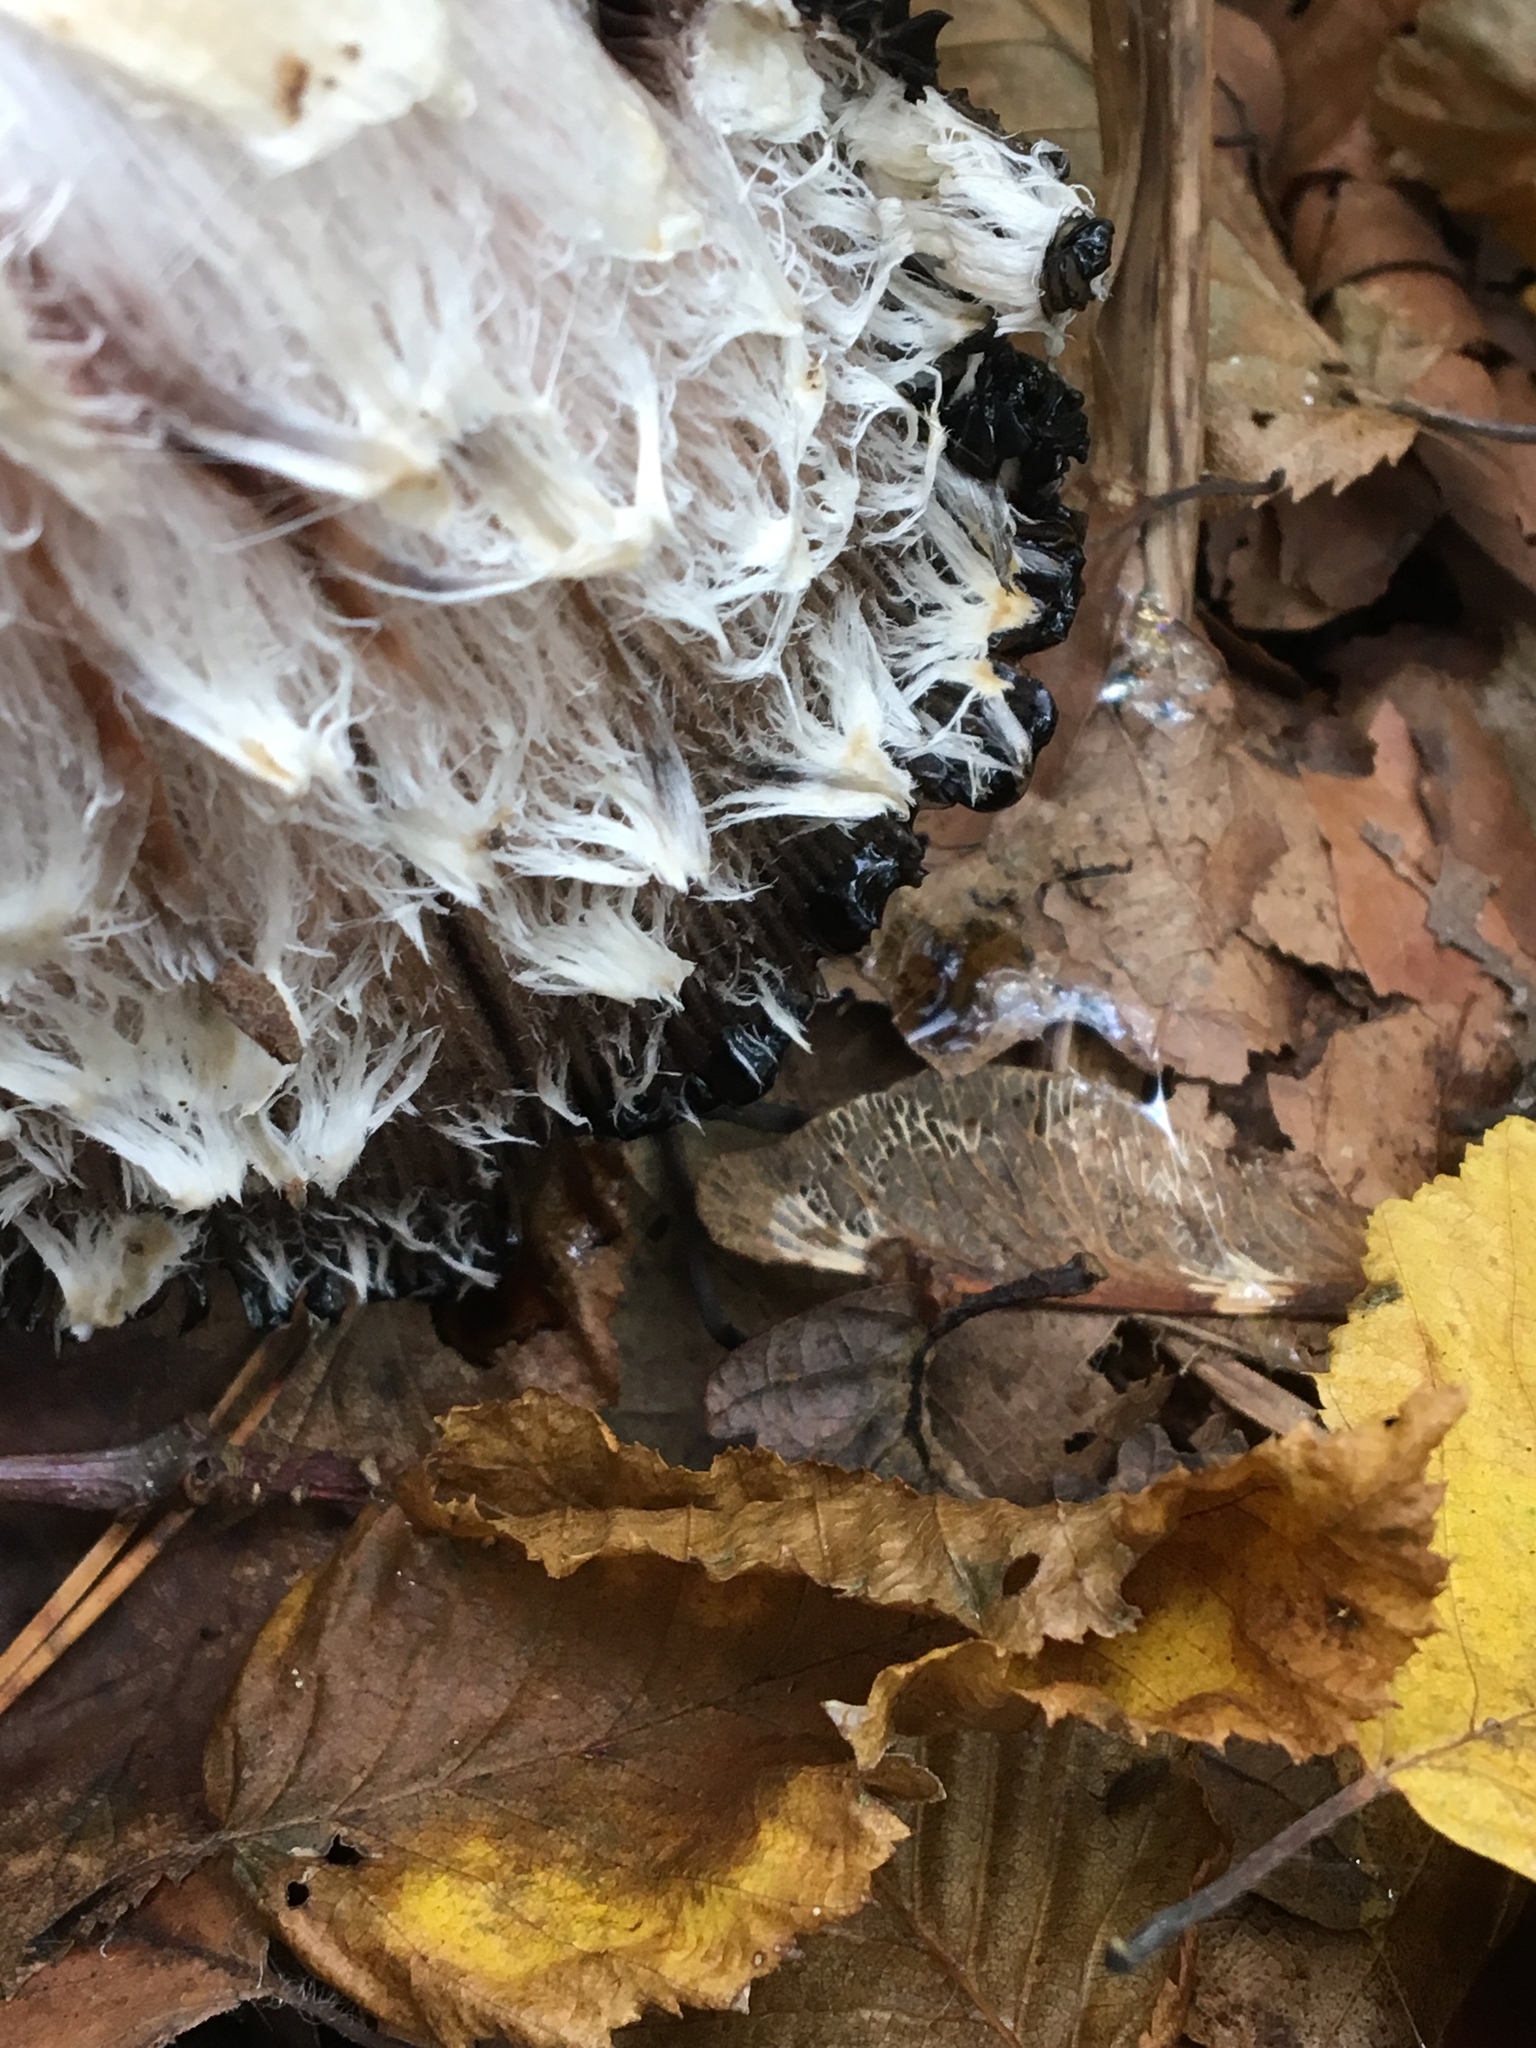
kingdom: Fungi
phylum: Basidiomycota
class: Agaricomycetes
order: Agaricales
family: Agaricaceae
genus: Coprinus
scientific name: Coprinus comatus
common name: Lawyer's wig
